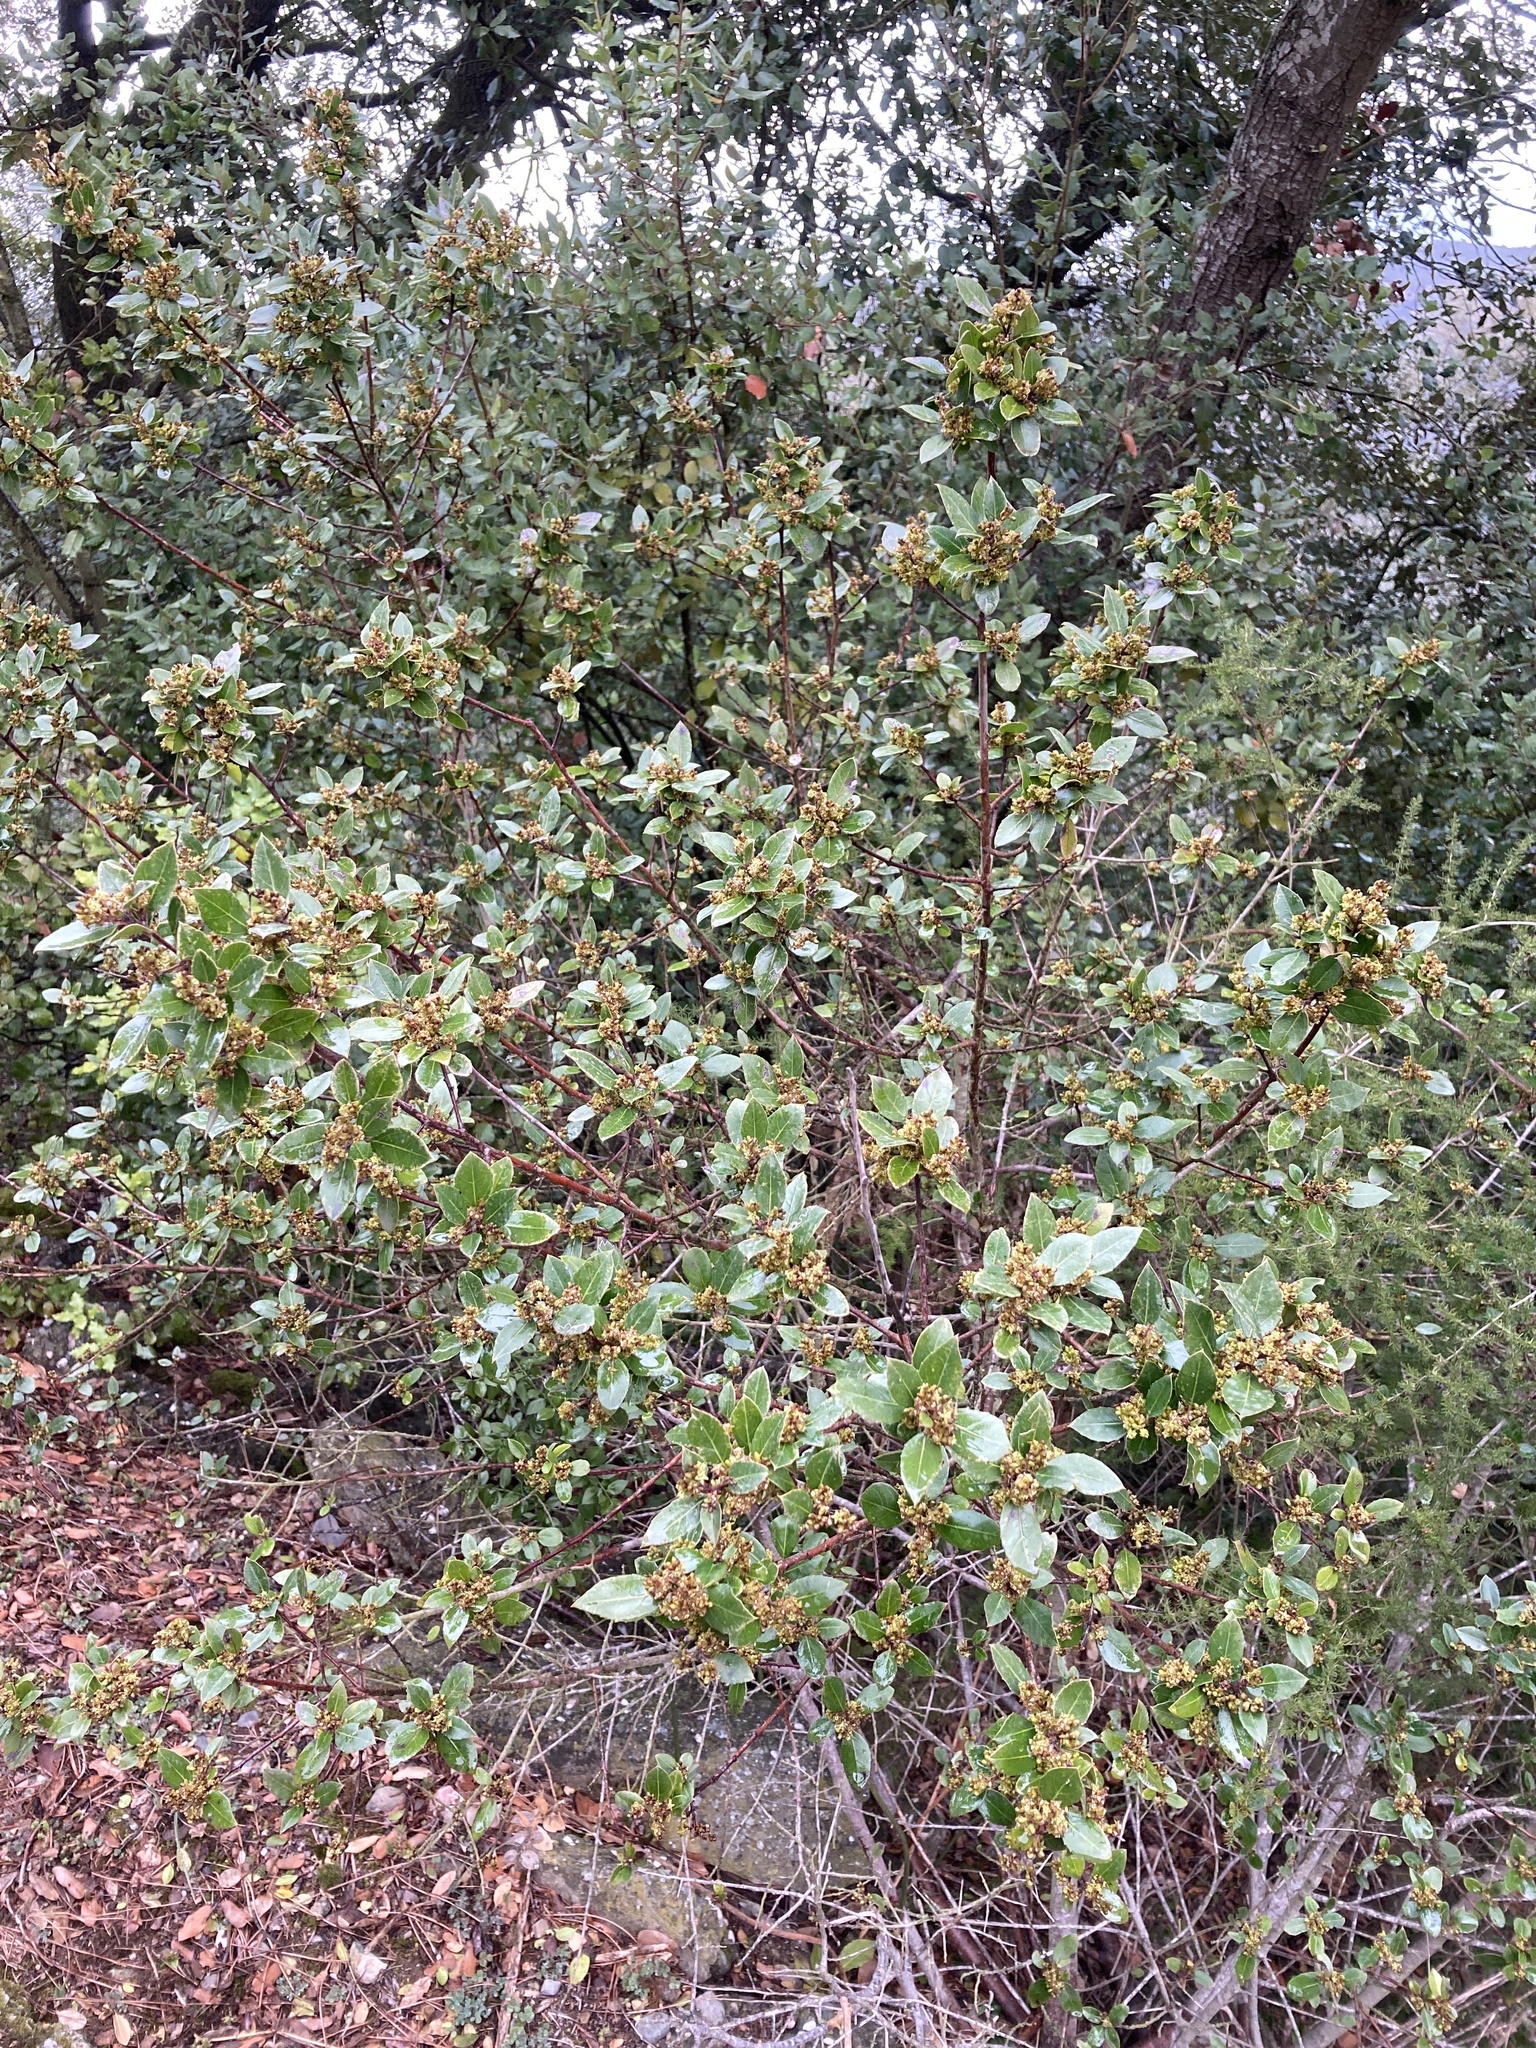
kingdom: Plantae
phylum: Tracheophyta
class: Magnoliopsida
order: Rosales
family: Rhamnaceae
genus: Rhamnus
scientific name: Rhamnus alaternus
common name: Mediterranean buckthorn
